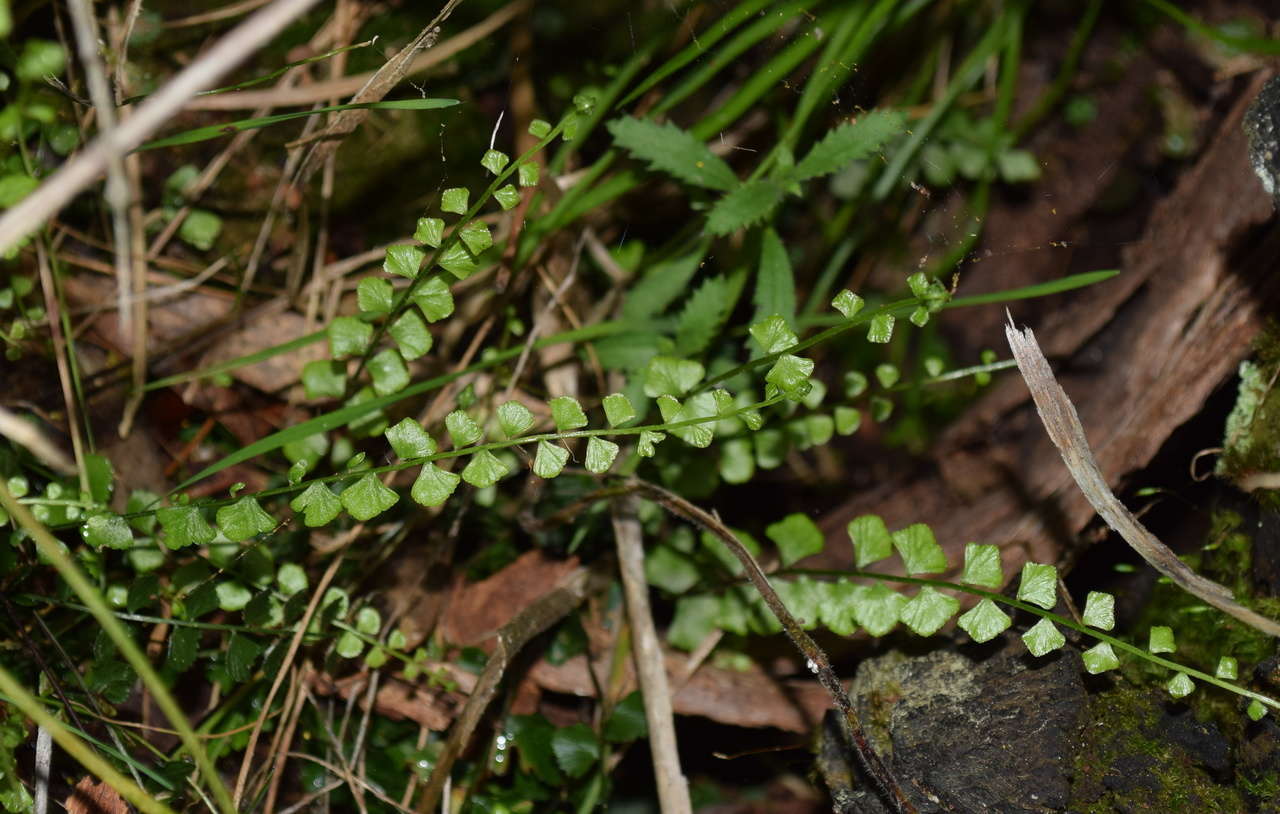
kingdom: Plantae
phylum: Tracheophyta
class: Polypodiopsida
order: Polypodiales
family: Aspleniaceae
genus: Asplenium
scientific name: Asplenium flabellifolium
